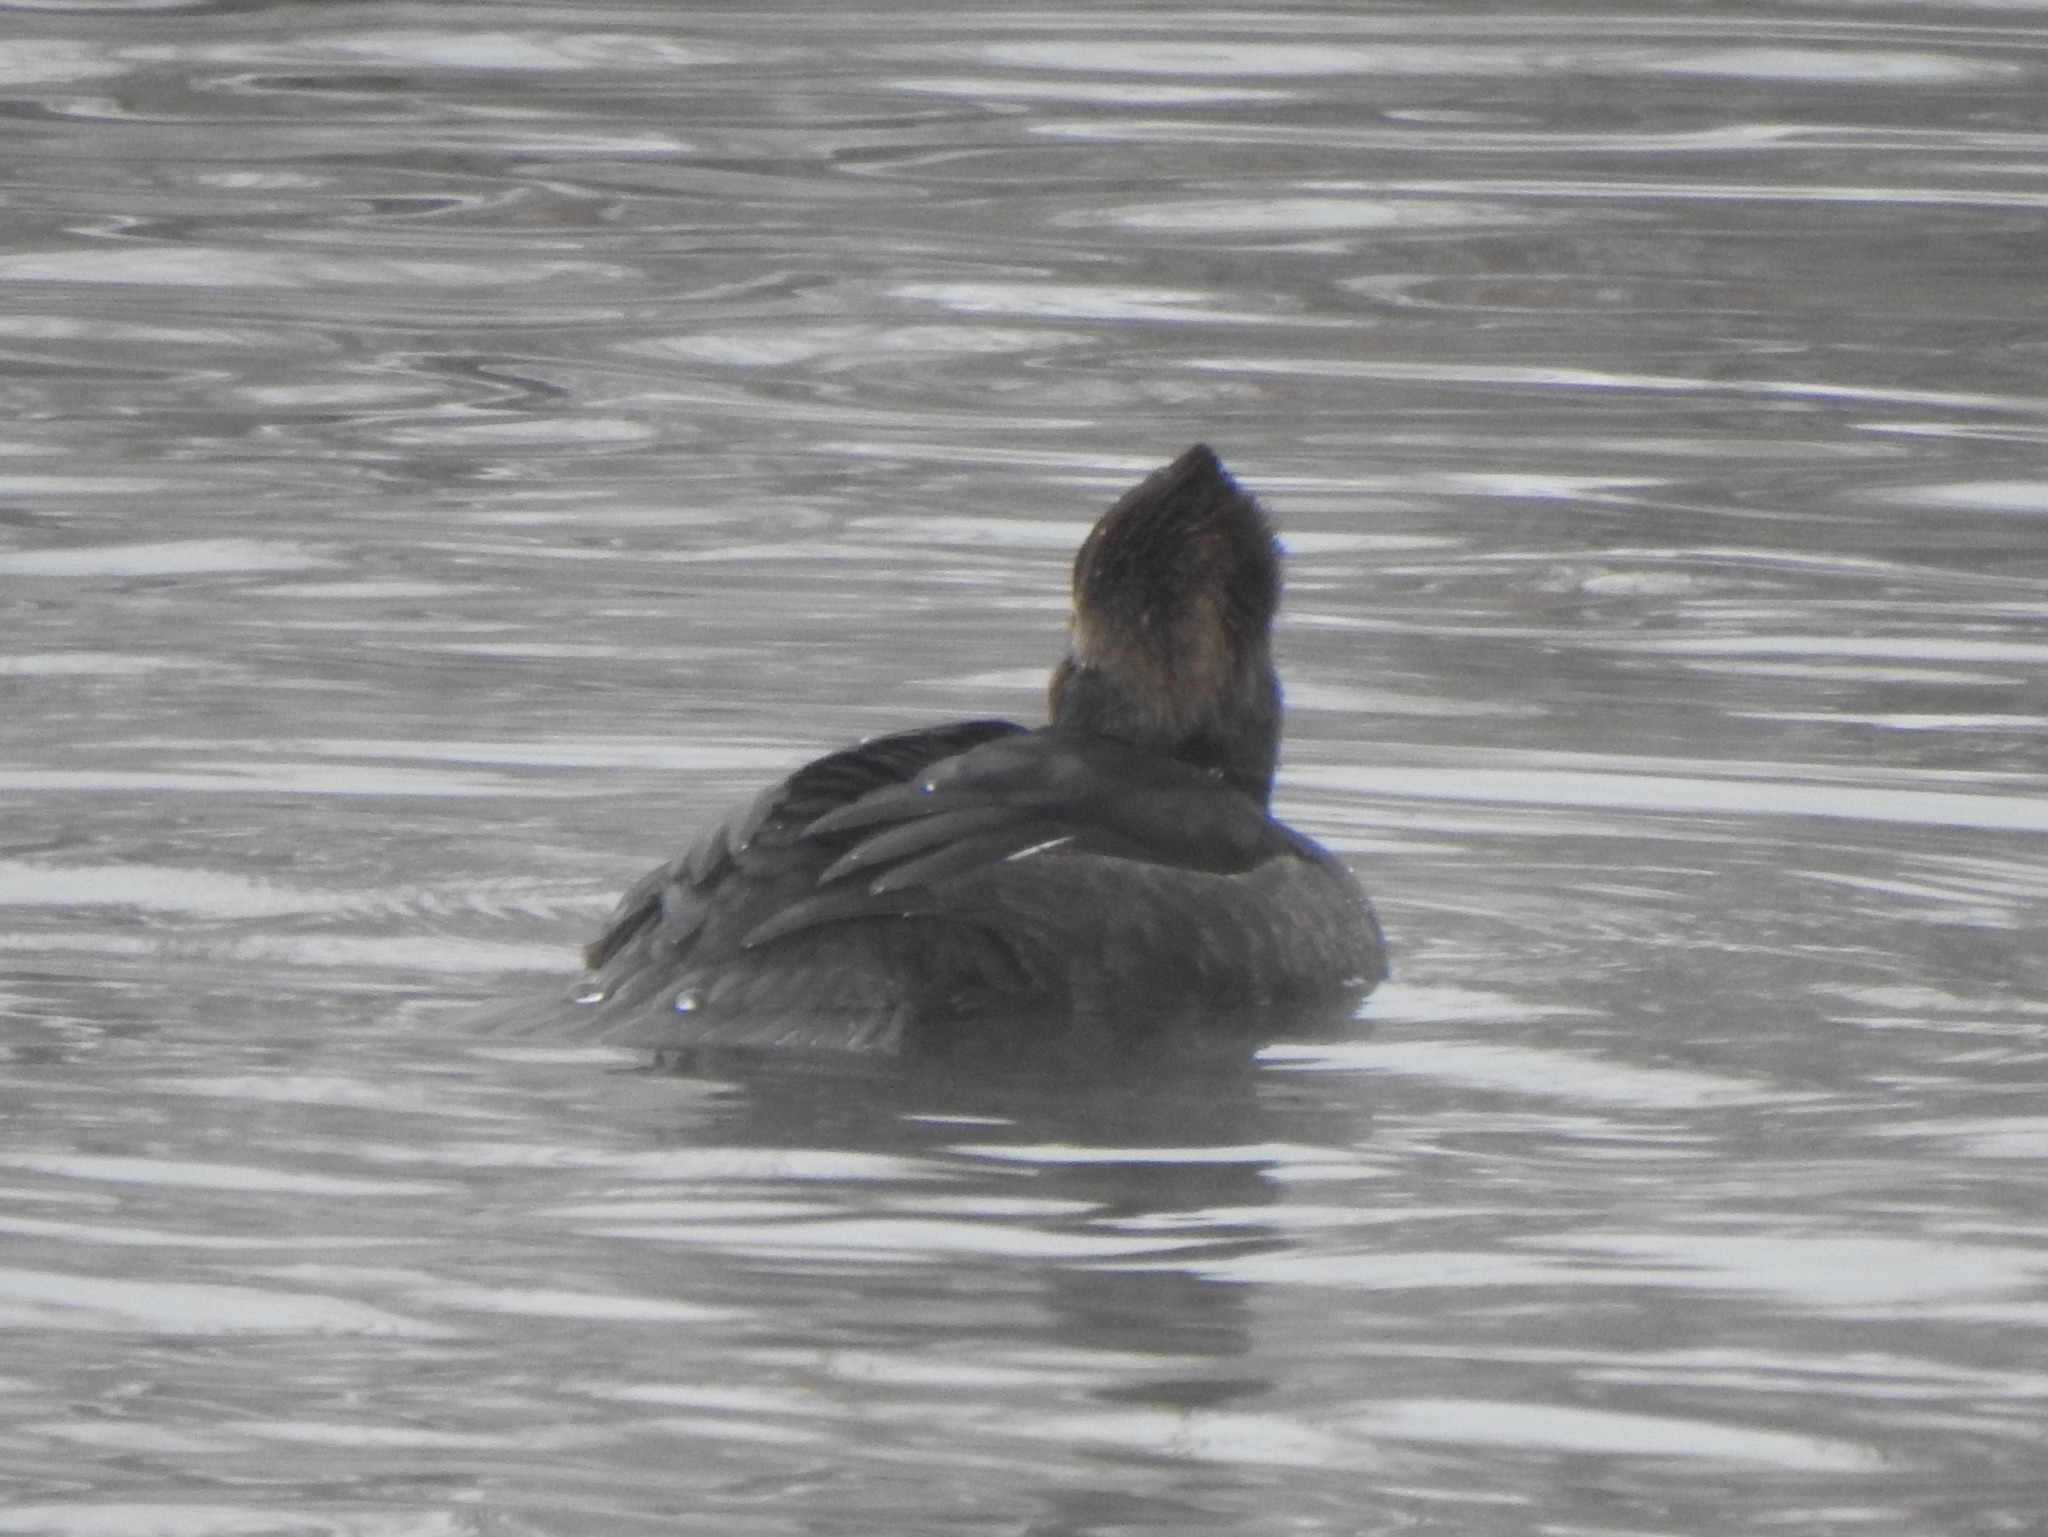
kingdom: Animalia
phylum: Chordata
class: Aves
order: Anseriformes
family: Anatidae
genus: Lophodytes
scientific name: Lophodytes cucullatus
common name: Hooded merganser
